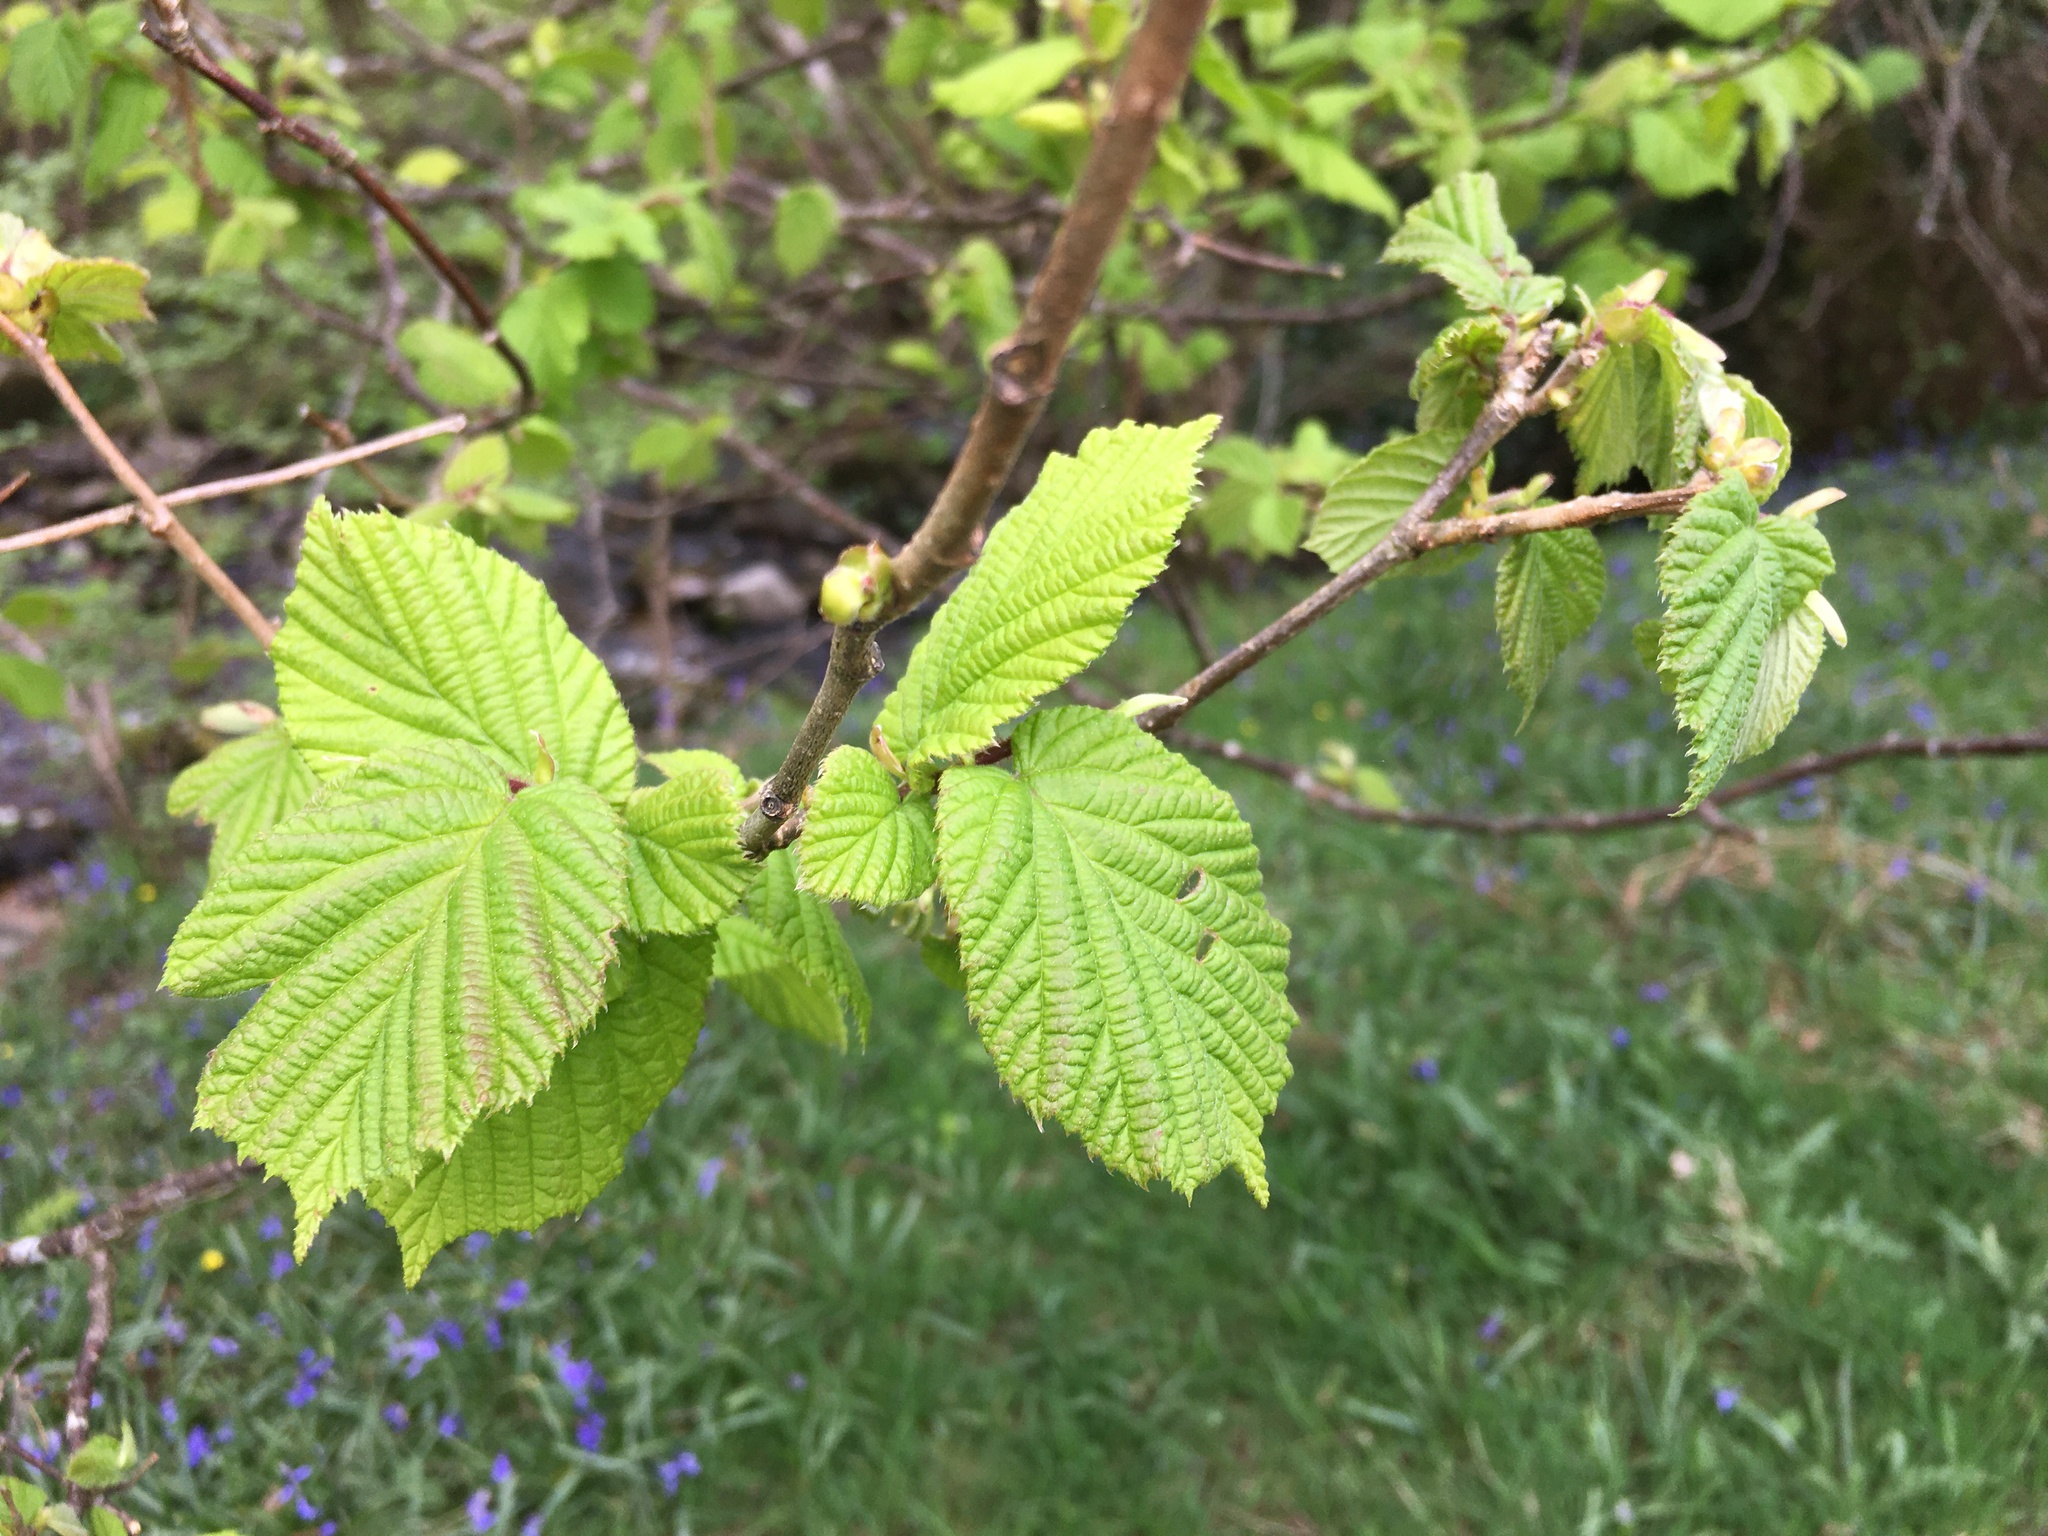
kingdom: Plantae
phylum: Tracheophyta
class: Magnoliopsida
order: Fagales
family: Betulaceae
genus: Corylus
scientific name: Corylus avellana
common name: European hazel
